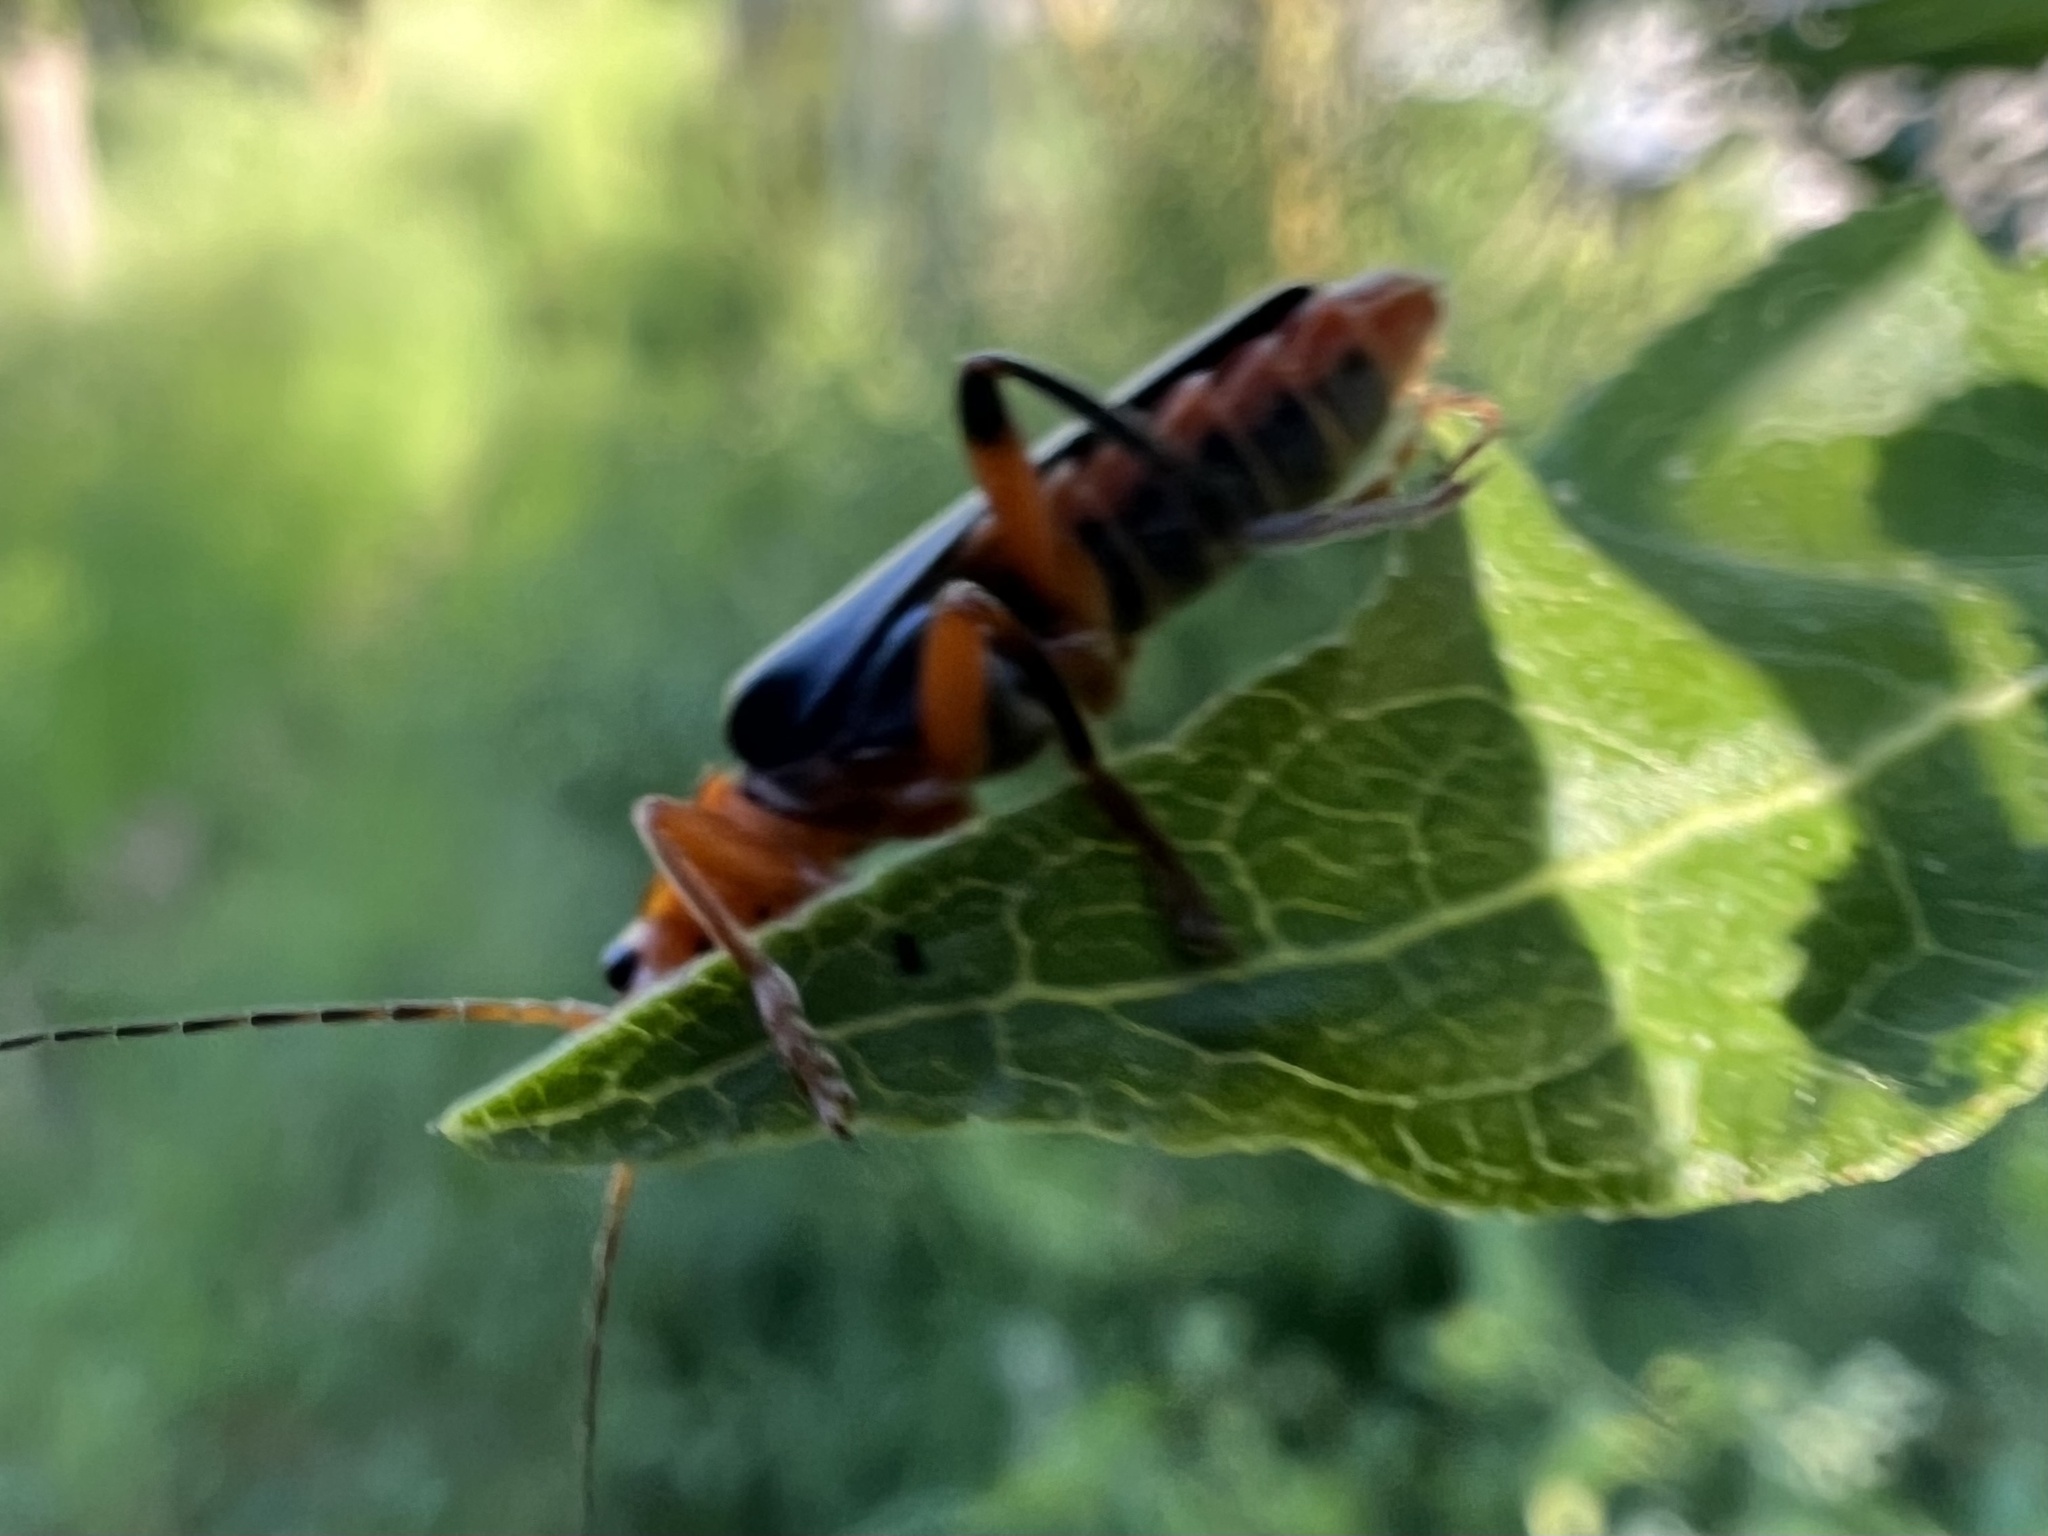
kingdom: Animalia
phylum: Arthropoda
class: Insecta
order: Coleoptera
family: Cantharidae
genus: Cantharis
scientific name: Cantharis livida
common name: Livid soldier beetle
